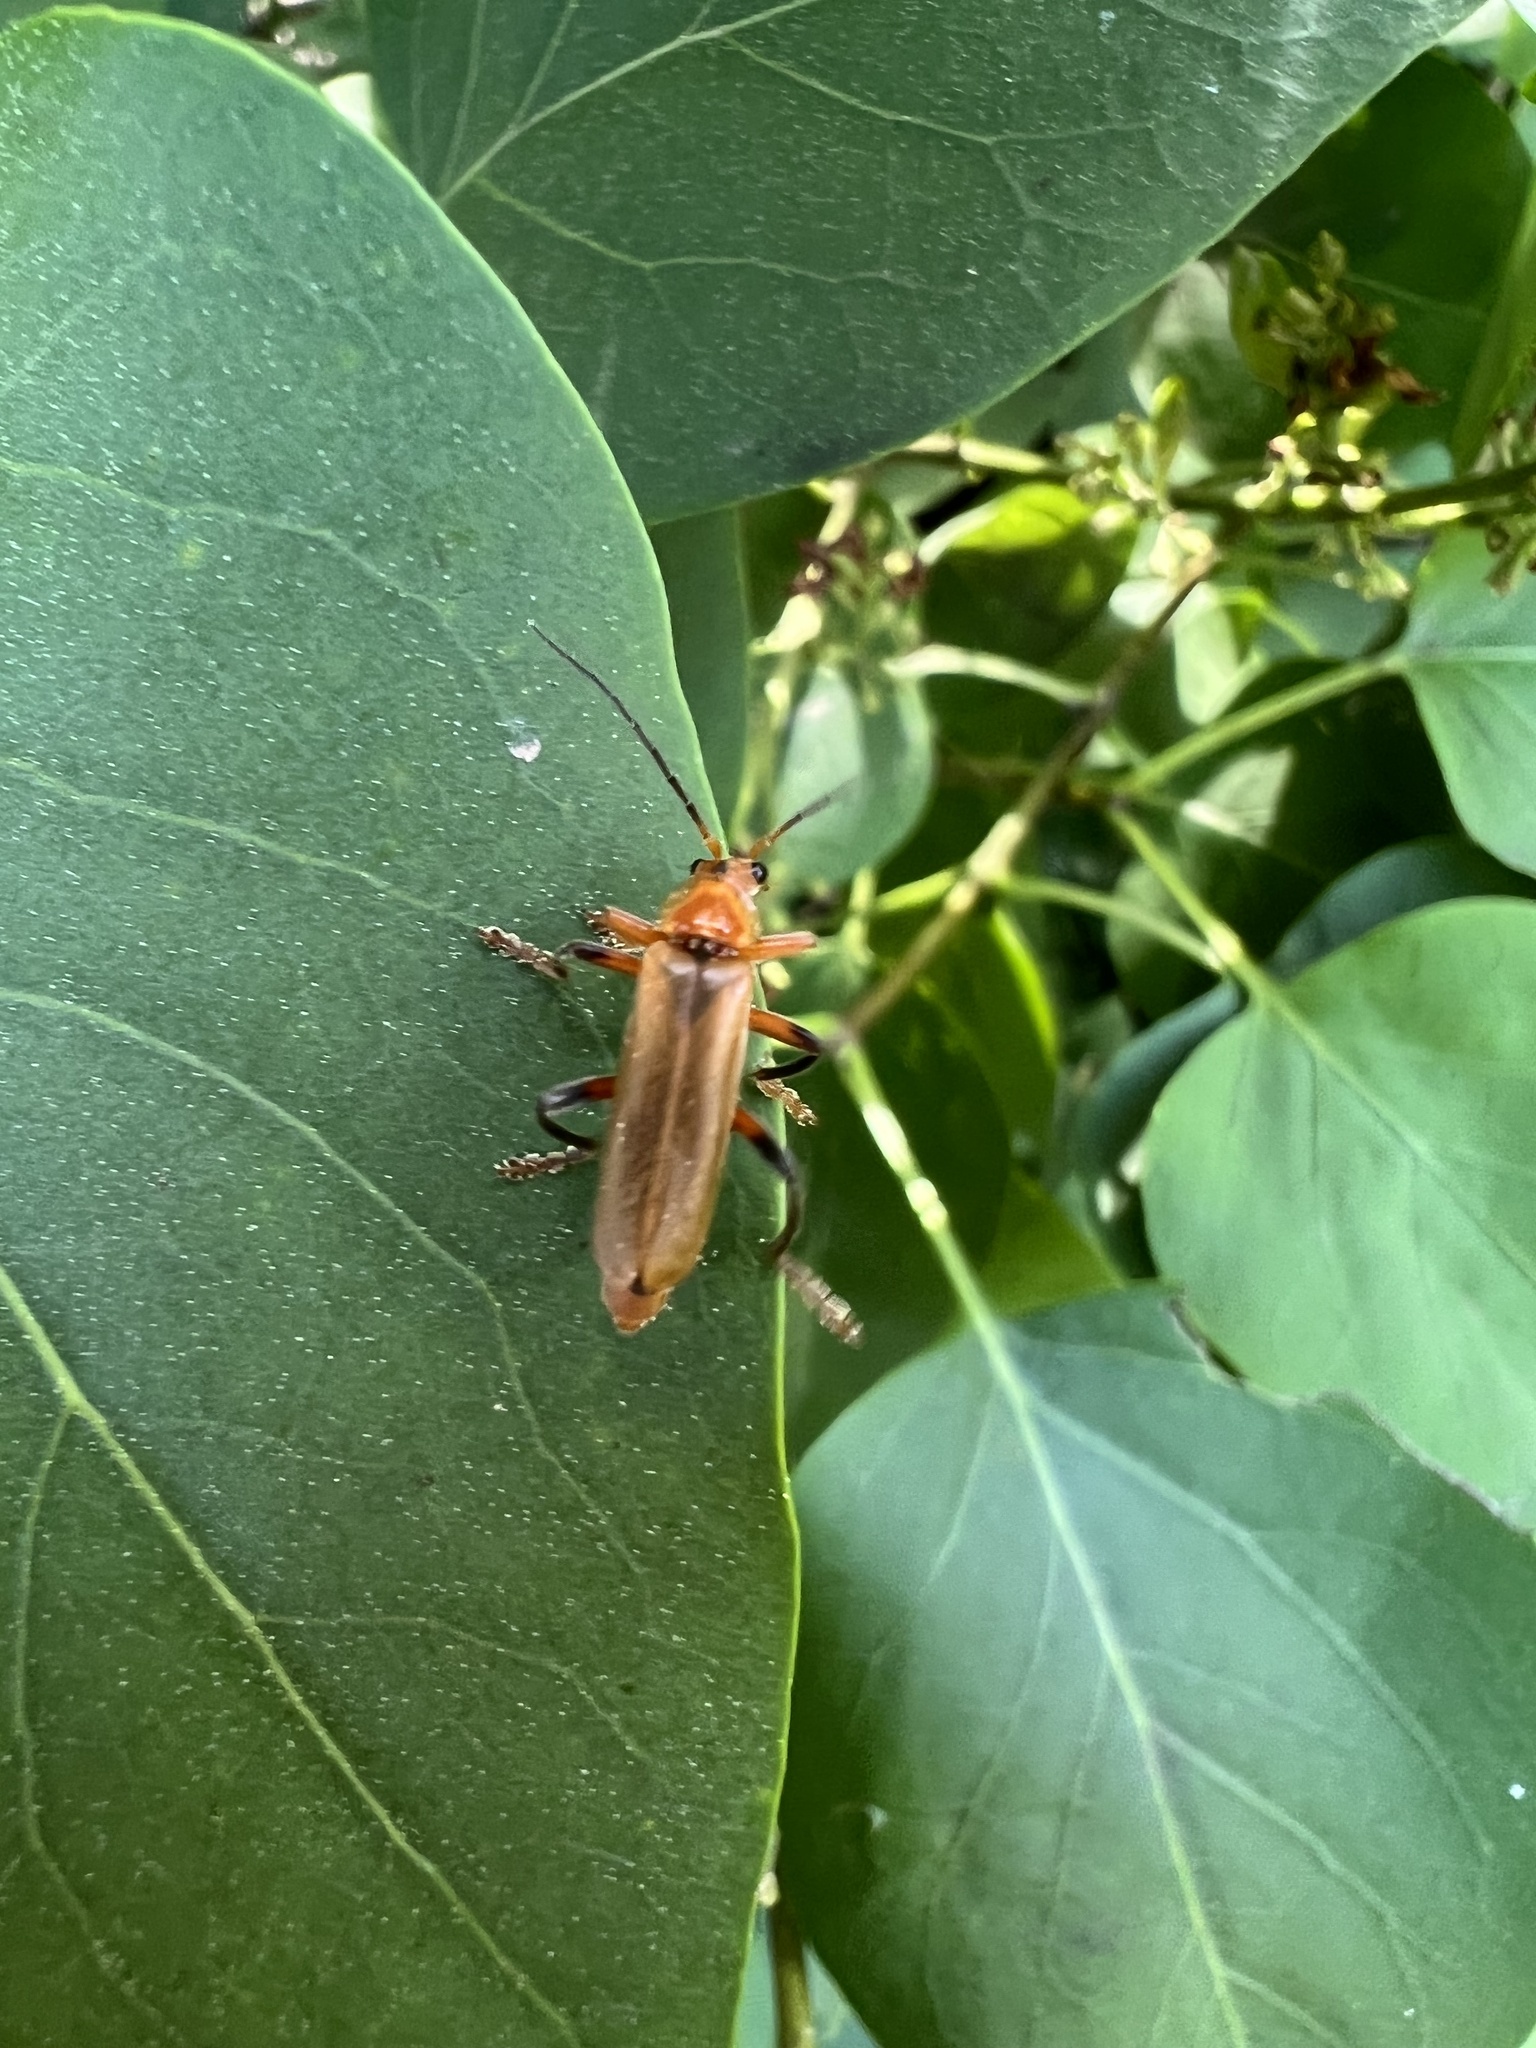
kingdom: Animalia
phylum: Arthropoda
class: Insecta
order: Coleoptera
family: Cantharidae
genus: Cantharis
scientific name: Cantharis livida
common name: Livid soldier beetle
